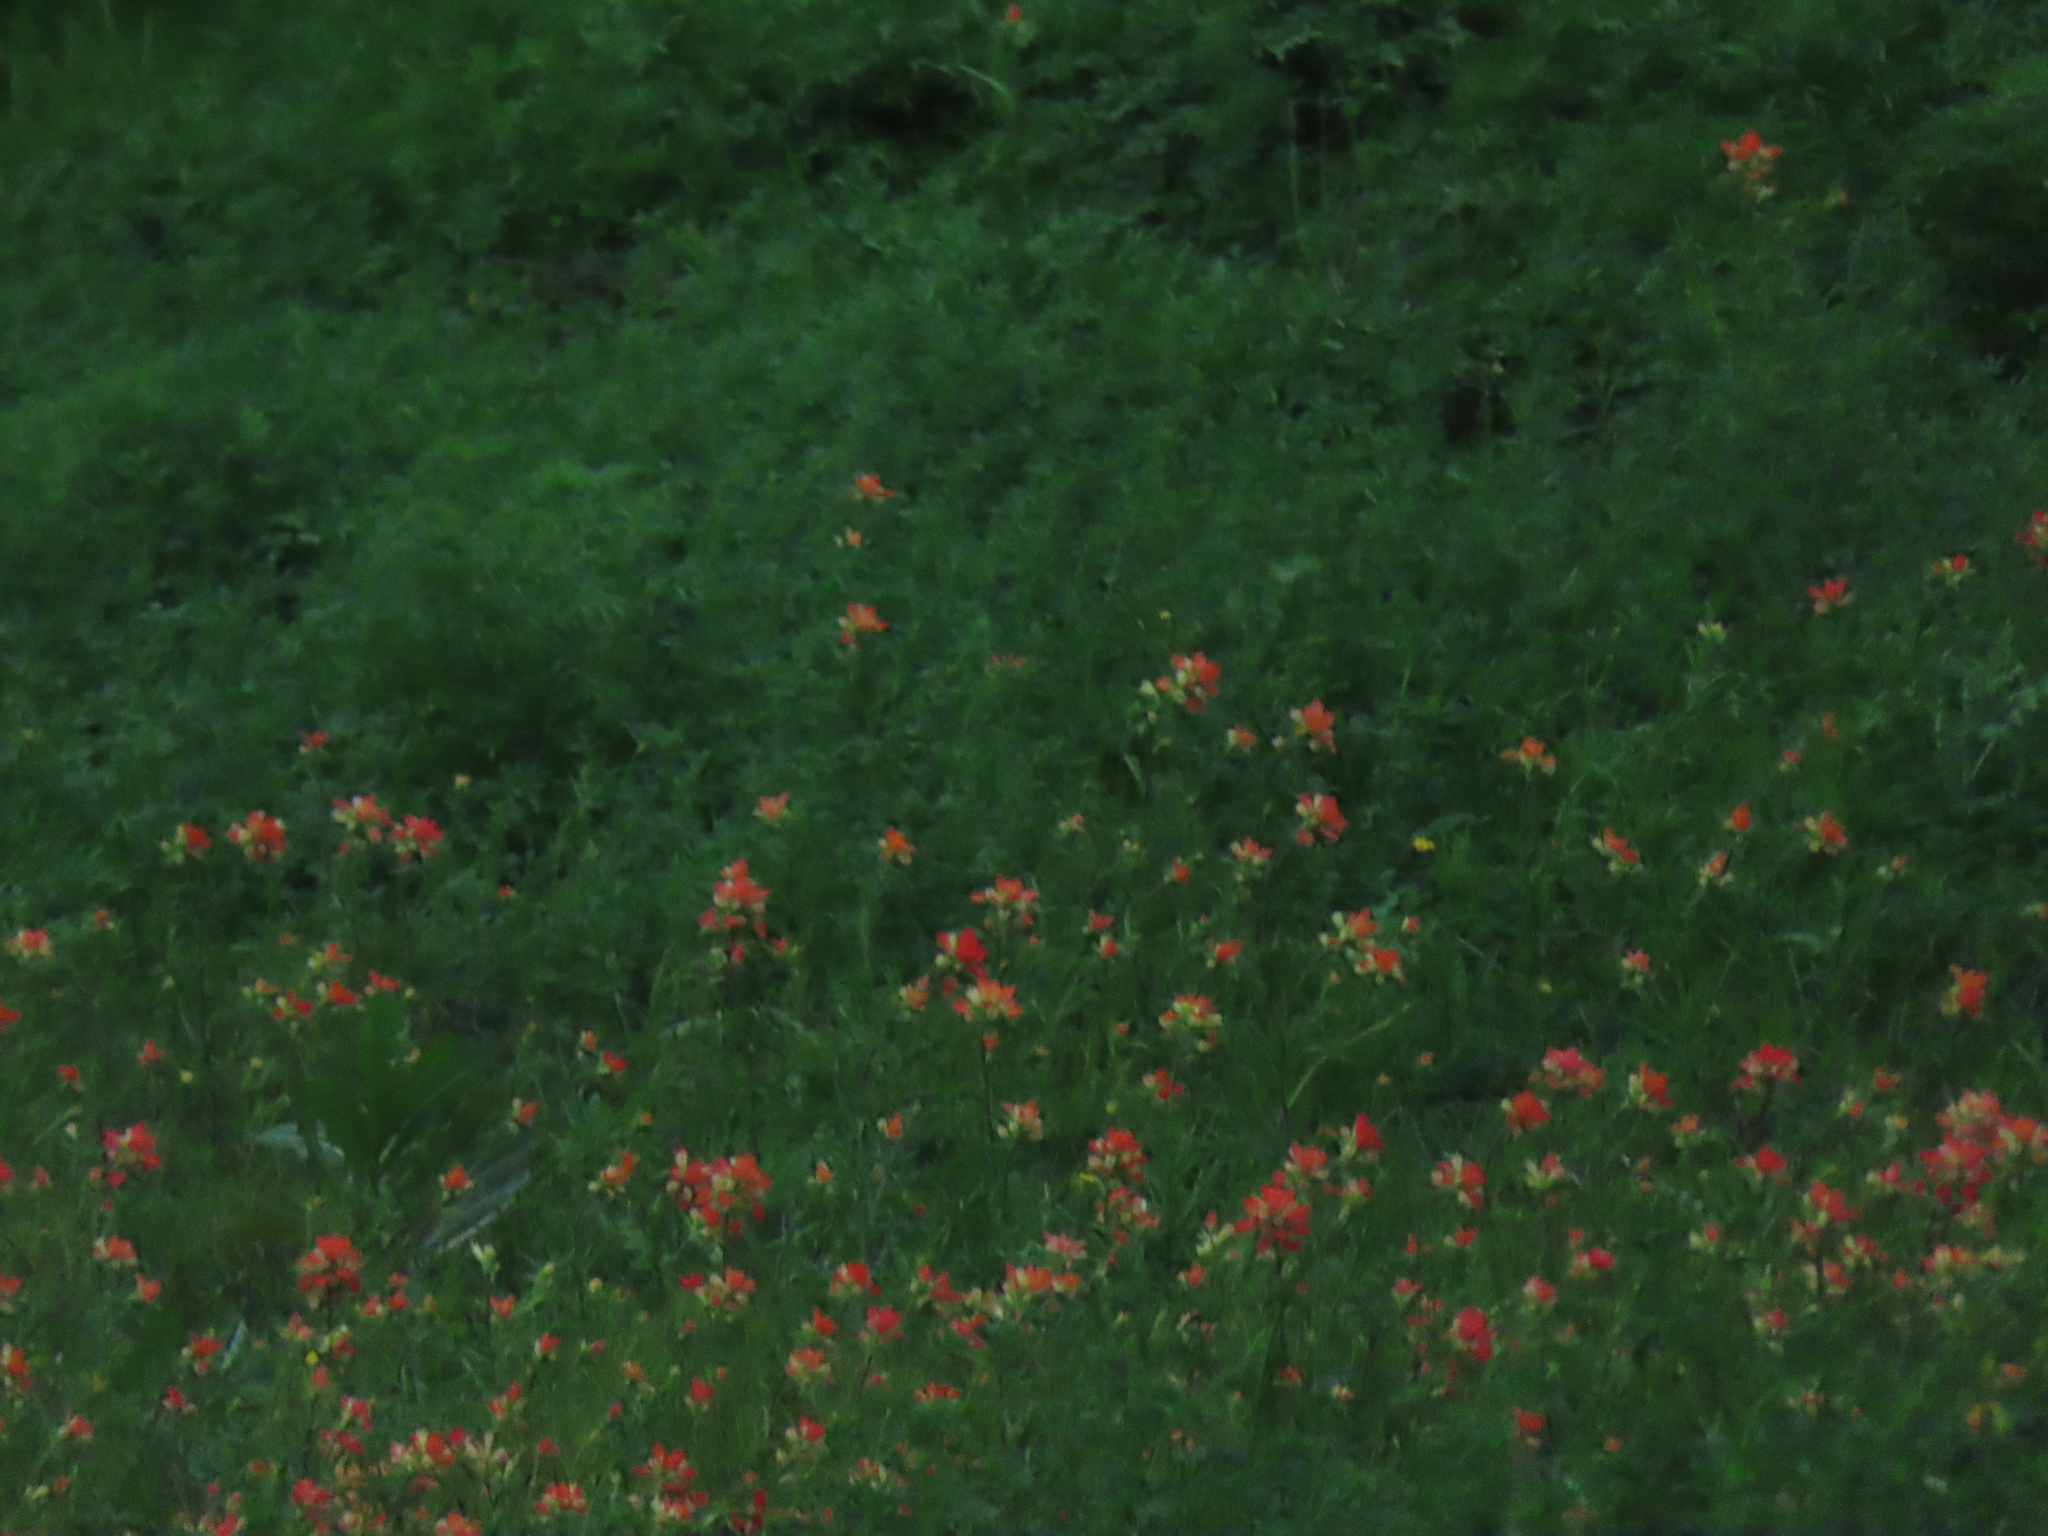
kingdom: Plantae
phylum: Tracheophyta
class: Magnoliopsida
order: Lamiales
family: Orobanchaceae
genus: Castilleja
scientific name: Castilleja indivisa
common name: Texas paintbrush
